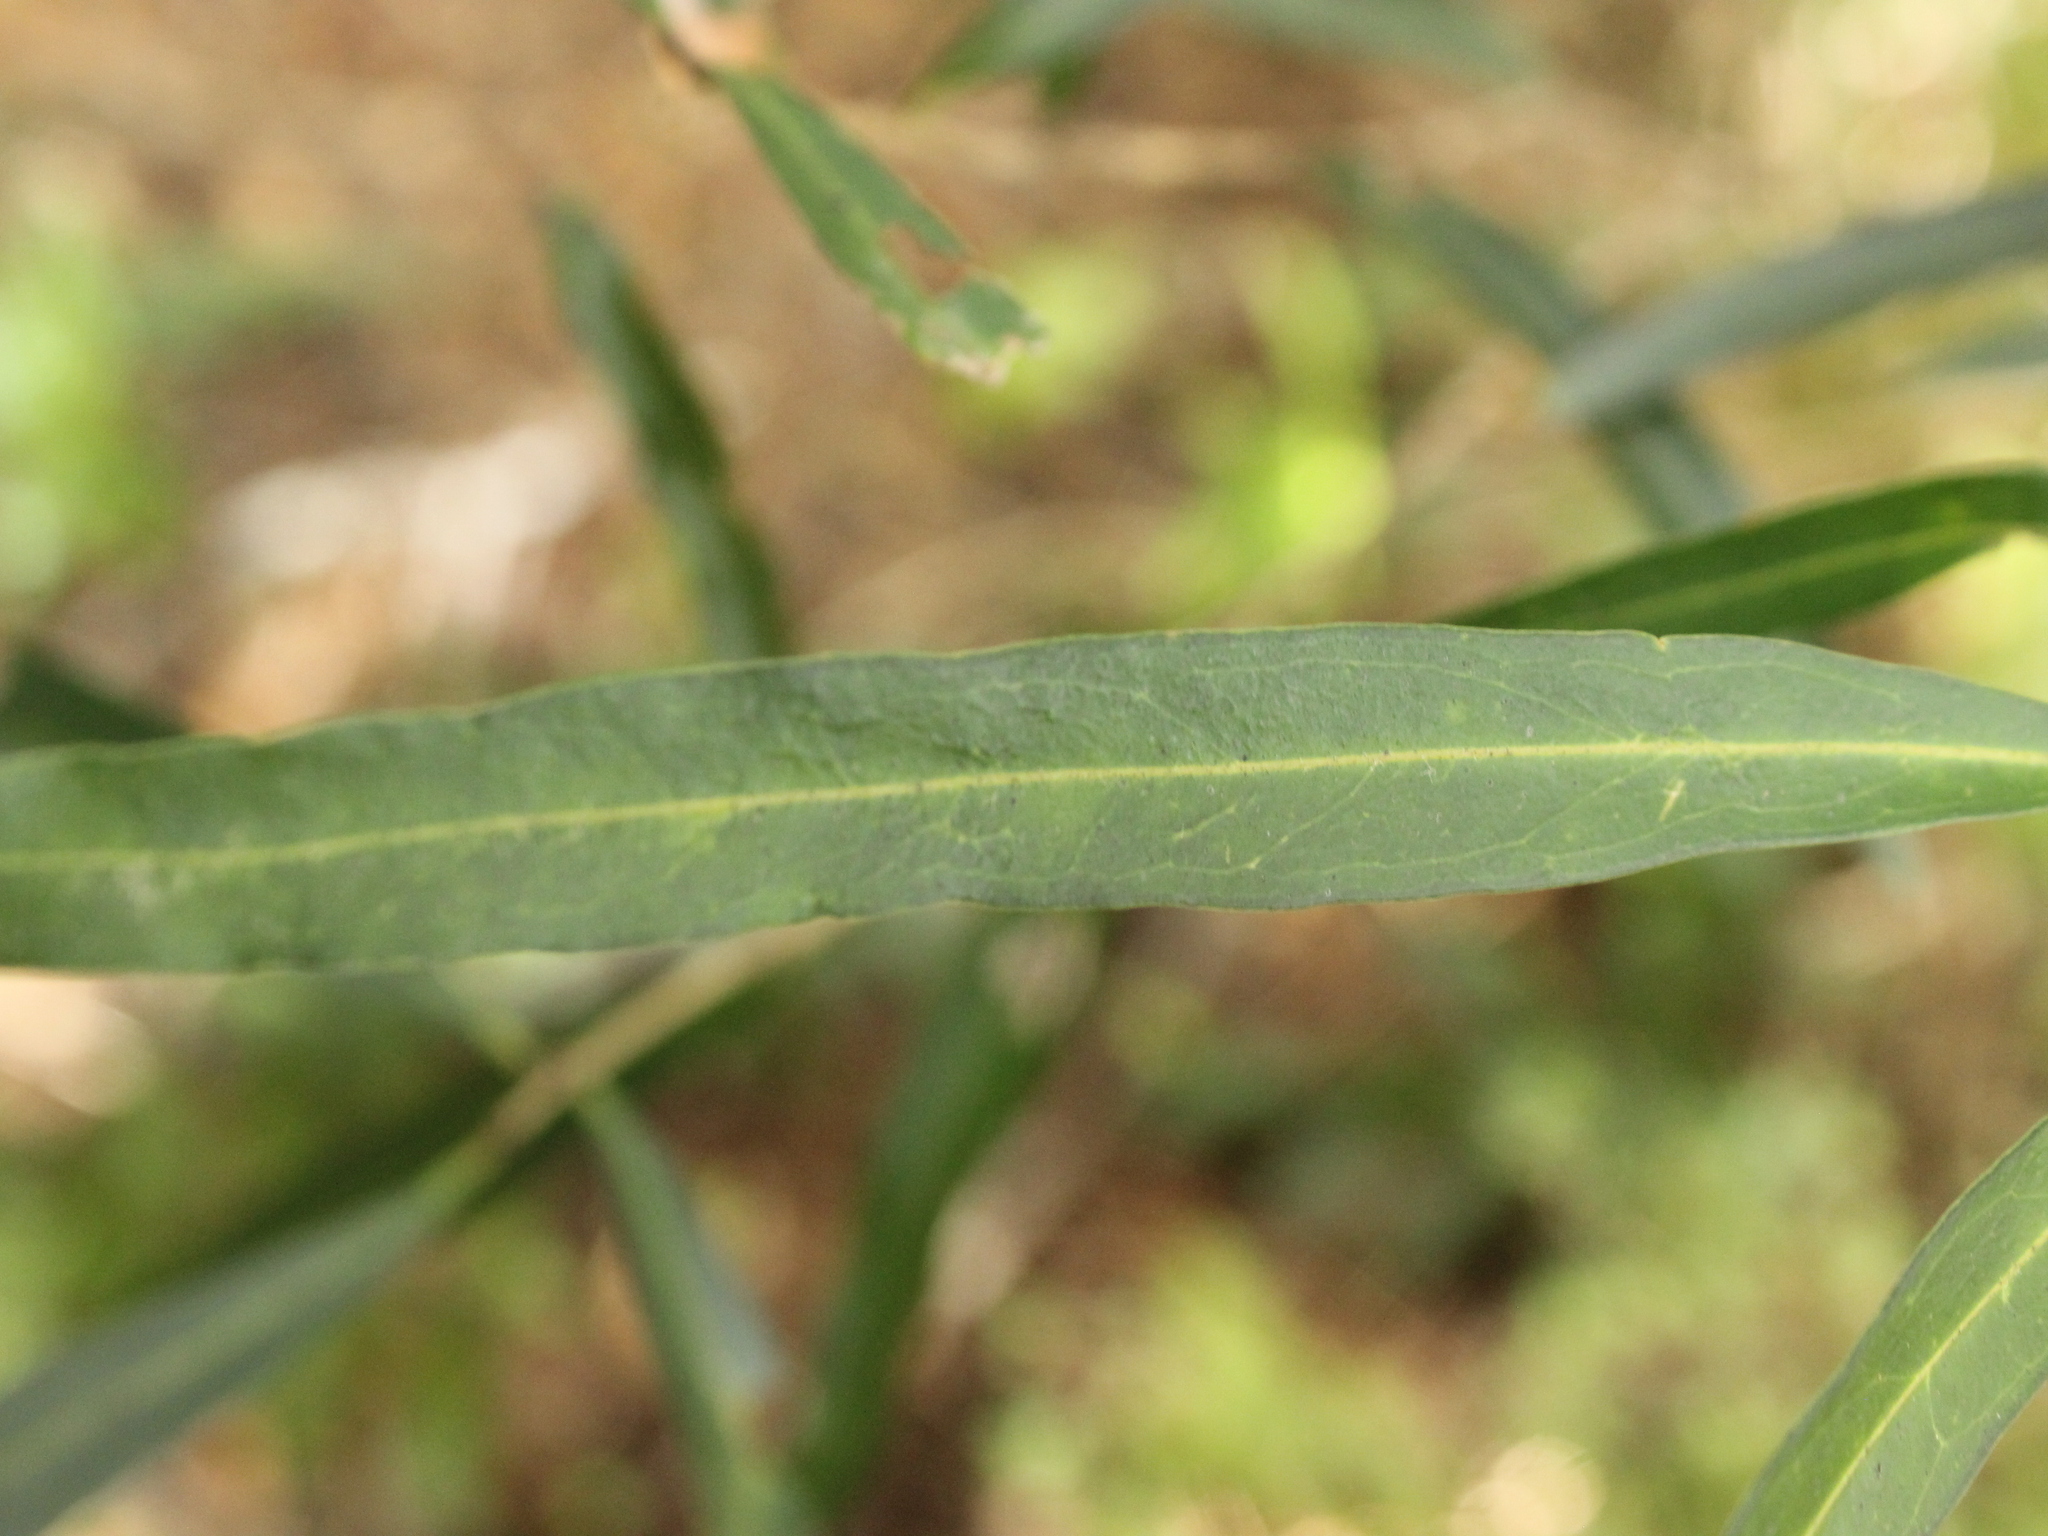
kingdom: Plantae
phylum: Tracheophyta
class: Magnoliopsida
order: Lamiales
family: Oleaceae
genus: Nestegis
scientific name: Nestegis lanceolata
